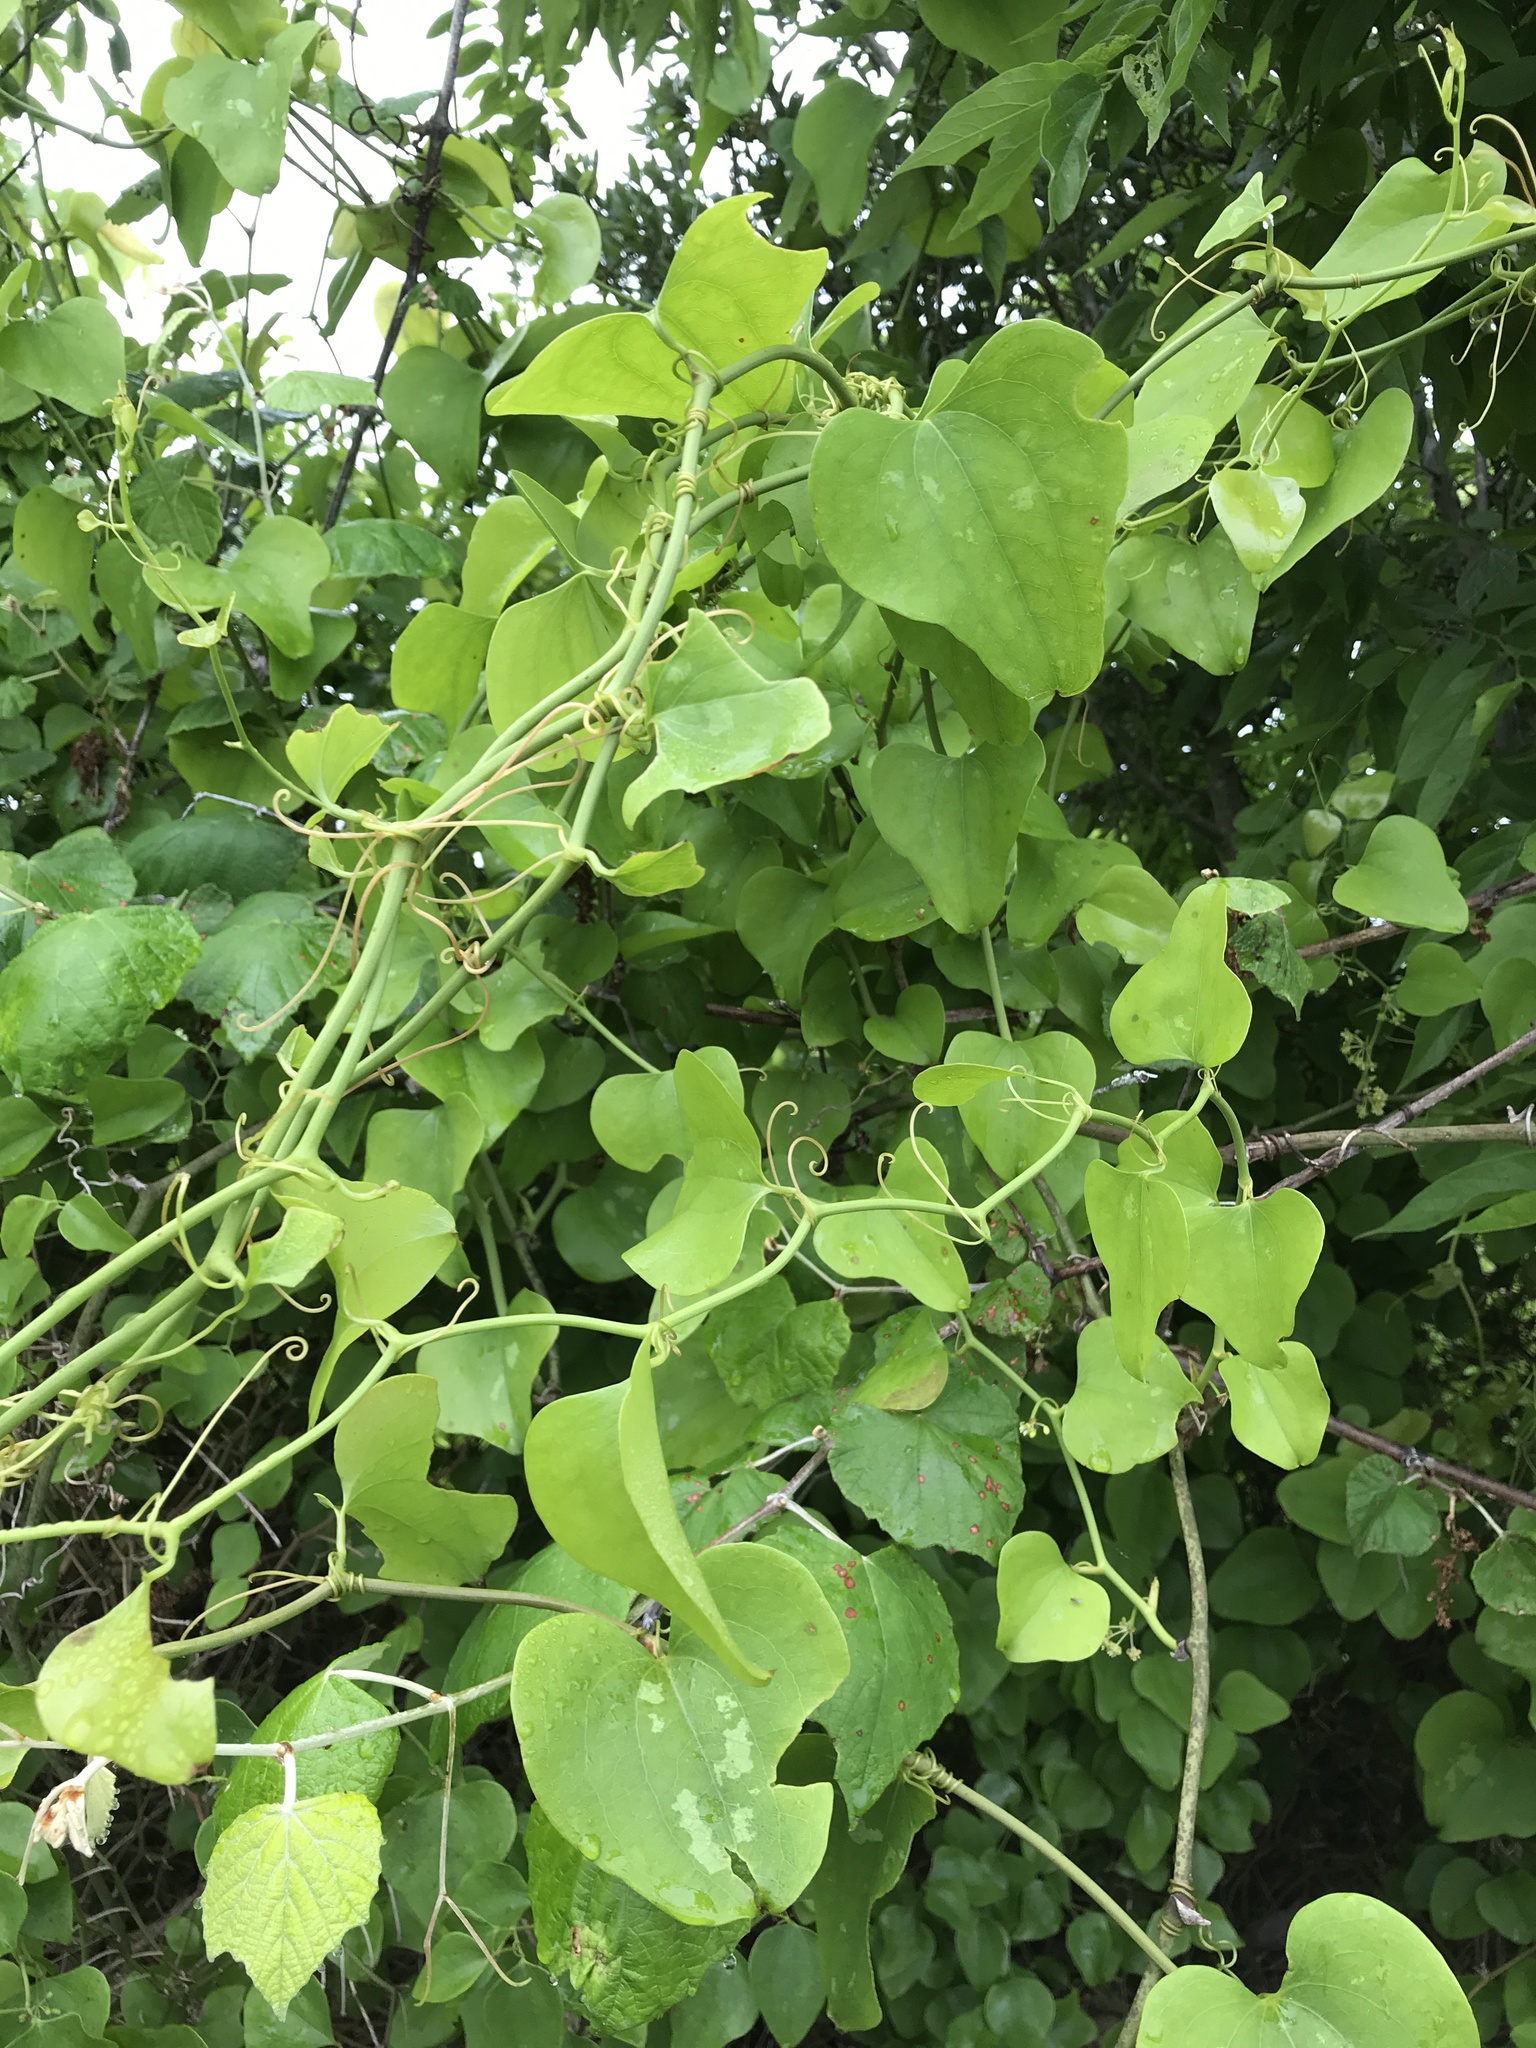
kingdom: Plantae
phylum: Tracheophyta
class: Liliopsida
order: Liliales
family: Smilacaceae
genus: Smilax
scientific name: Smilax bona-nox
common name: Catbrier
